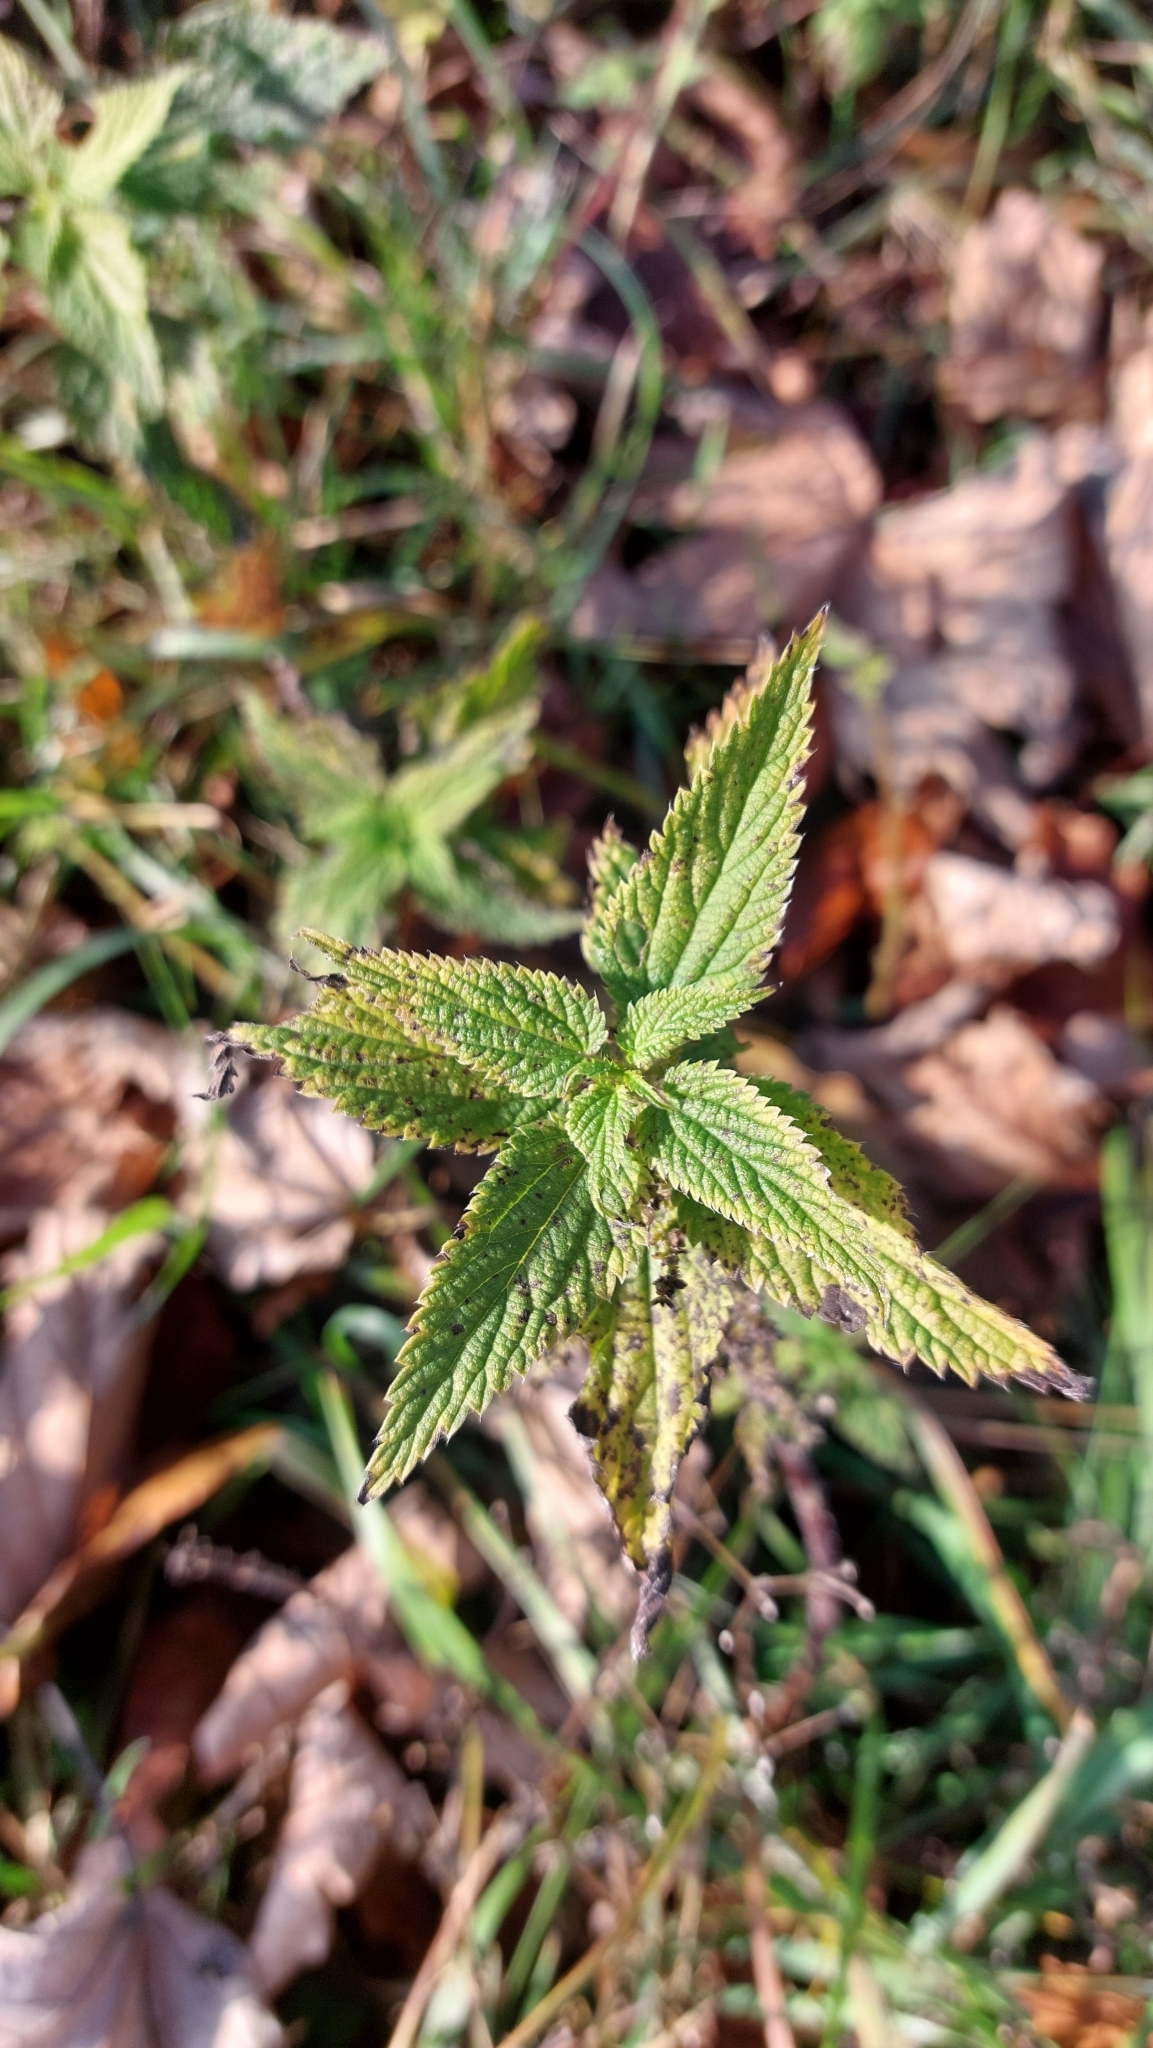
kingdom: Plantae
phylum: Tracheophyta
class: Magnoliopsida
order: Rosales
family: Urticaceae
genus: Urtica
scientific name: Urtica dioica
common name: Common nettle
